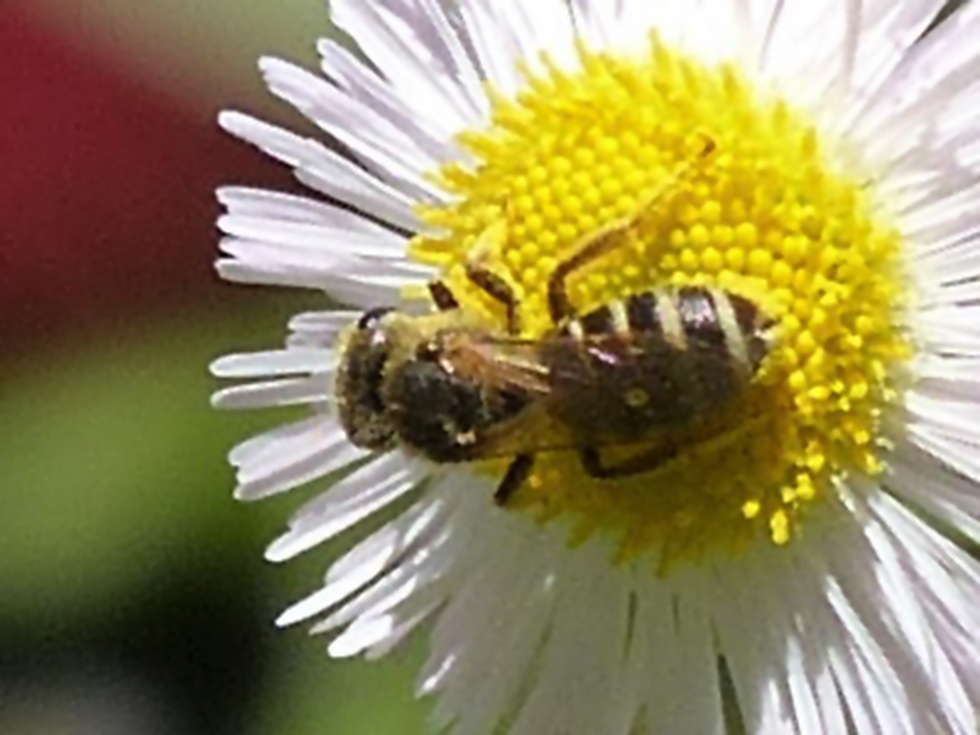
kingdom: Animalia
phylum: Arthropoda
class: Insecta
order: Hymenoptera
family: Halictidae
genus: Halictus
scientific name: Halictus ligatus
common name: Ligated furrow bee
